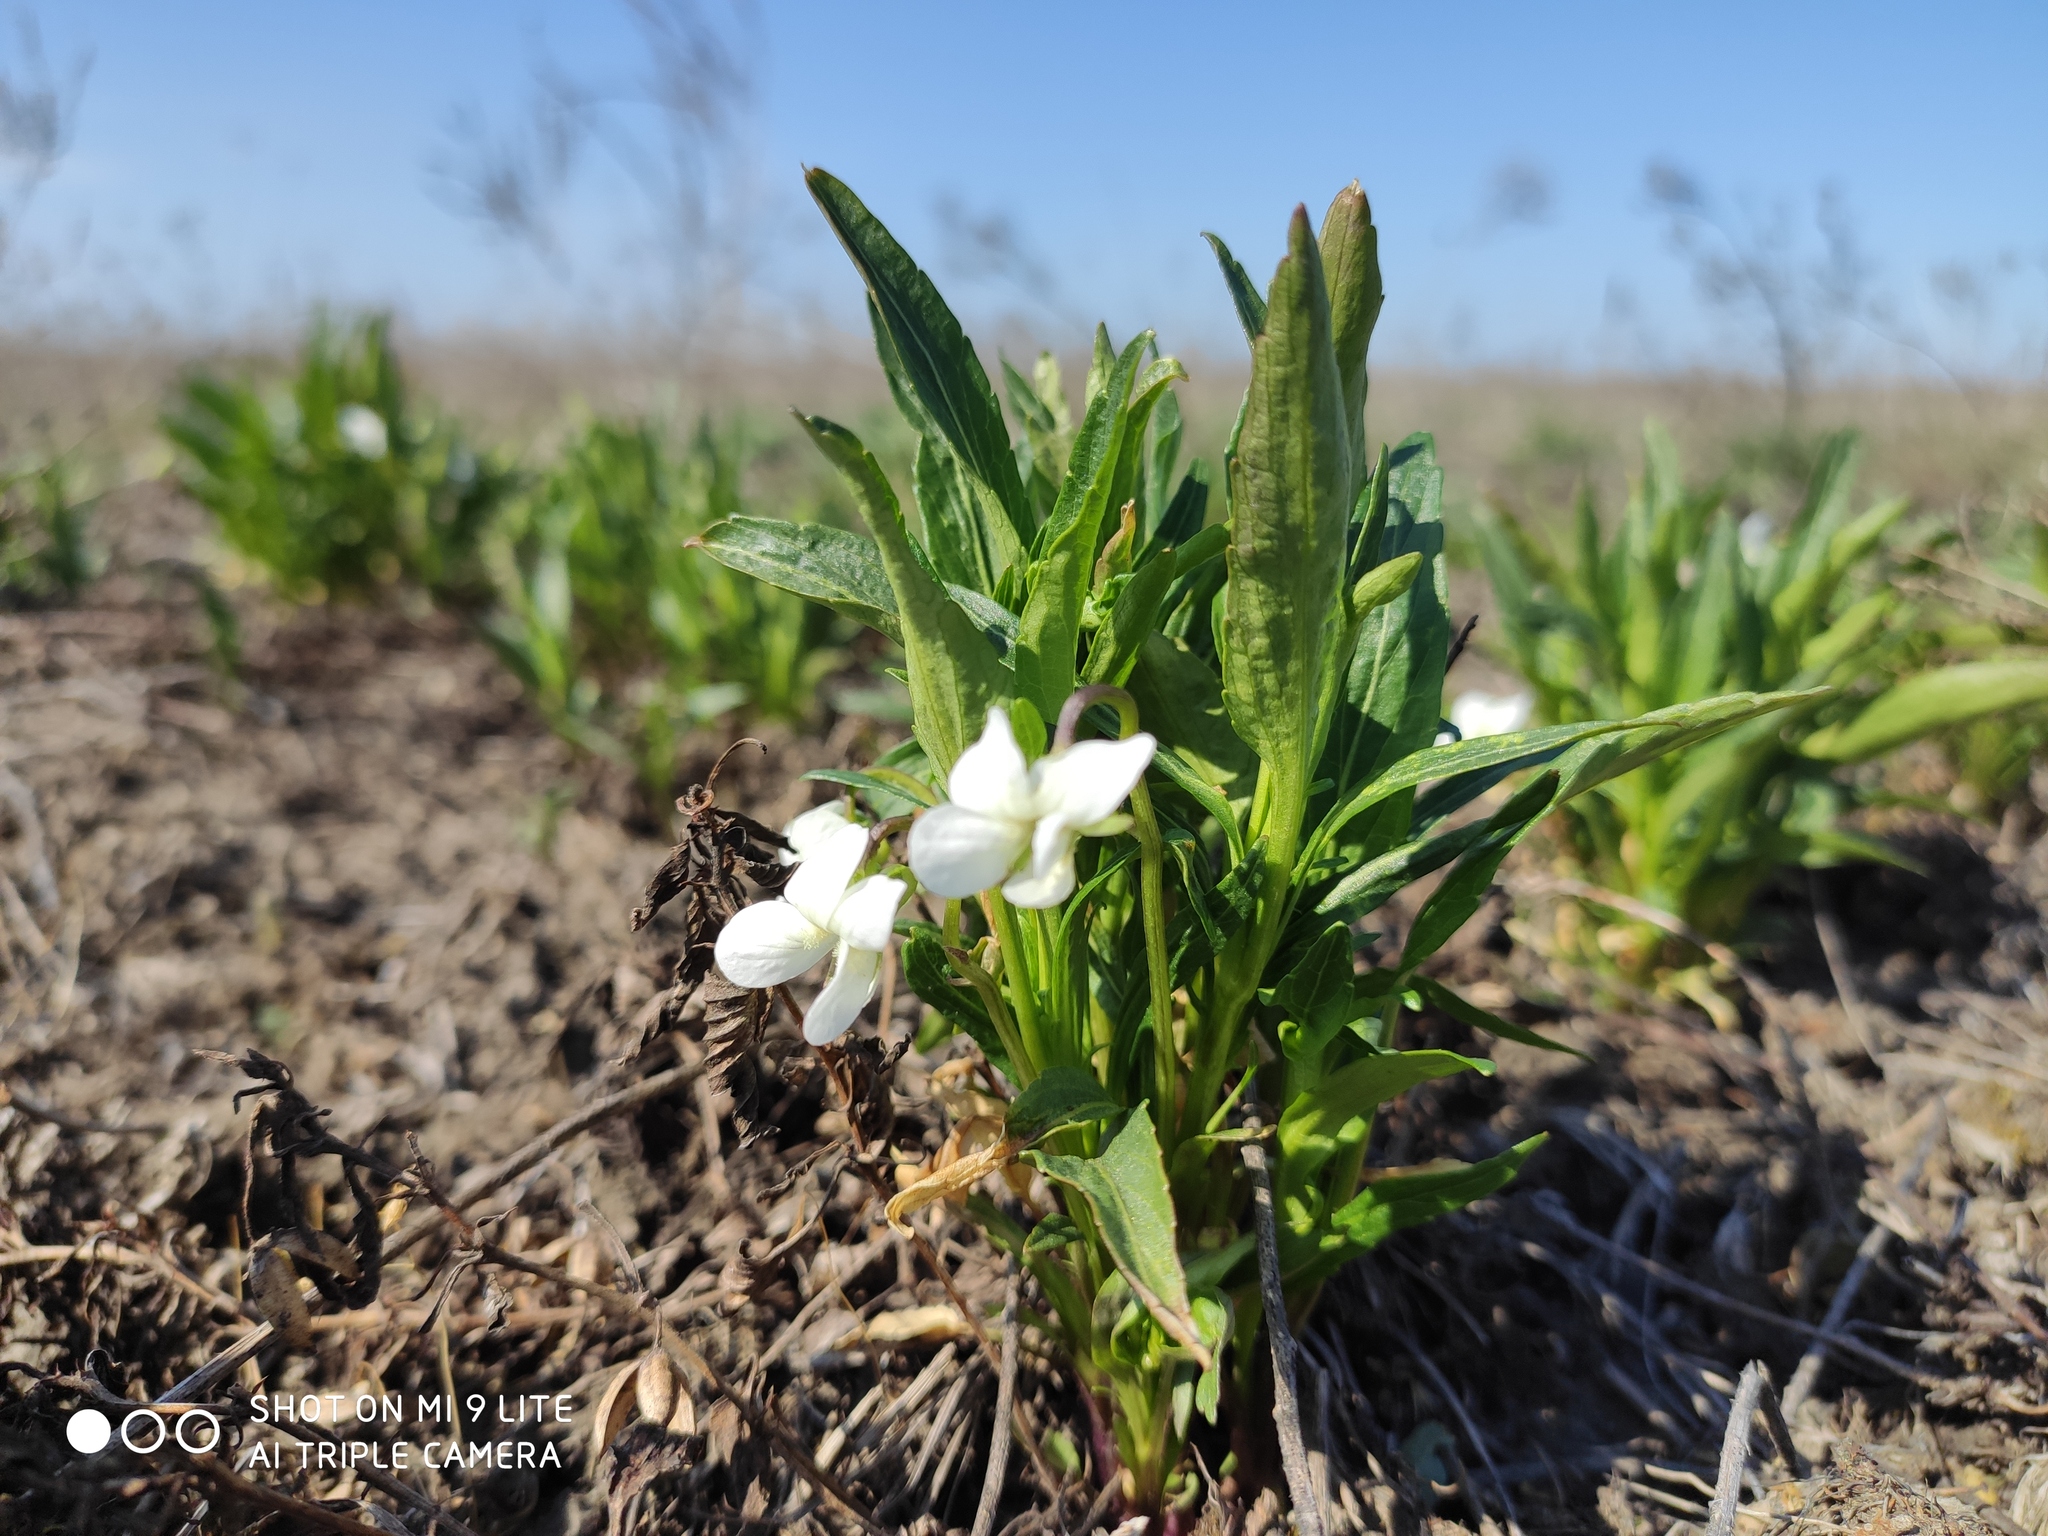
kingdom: Plantae
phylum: Tracheophyta
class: Magnoliopsida
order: Malpighiales
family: Violaceae
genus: Viola
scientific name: Viola pumila
